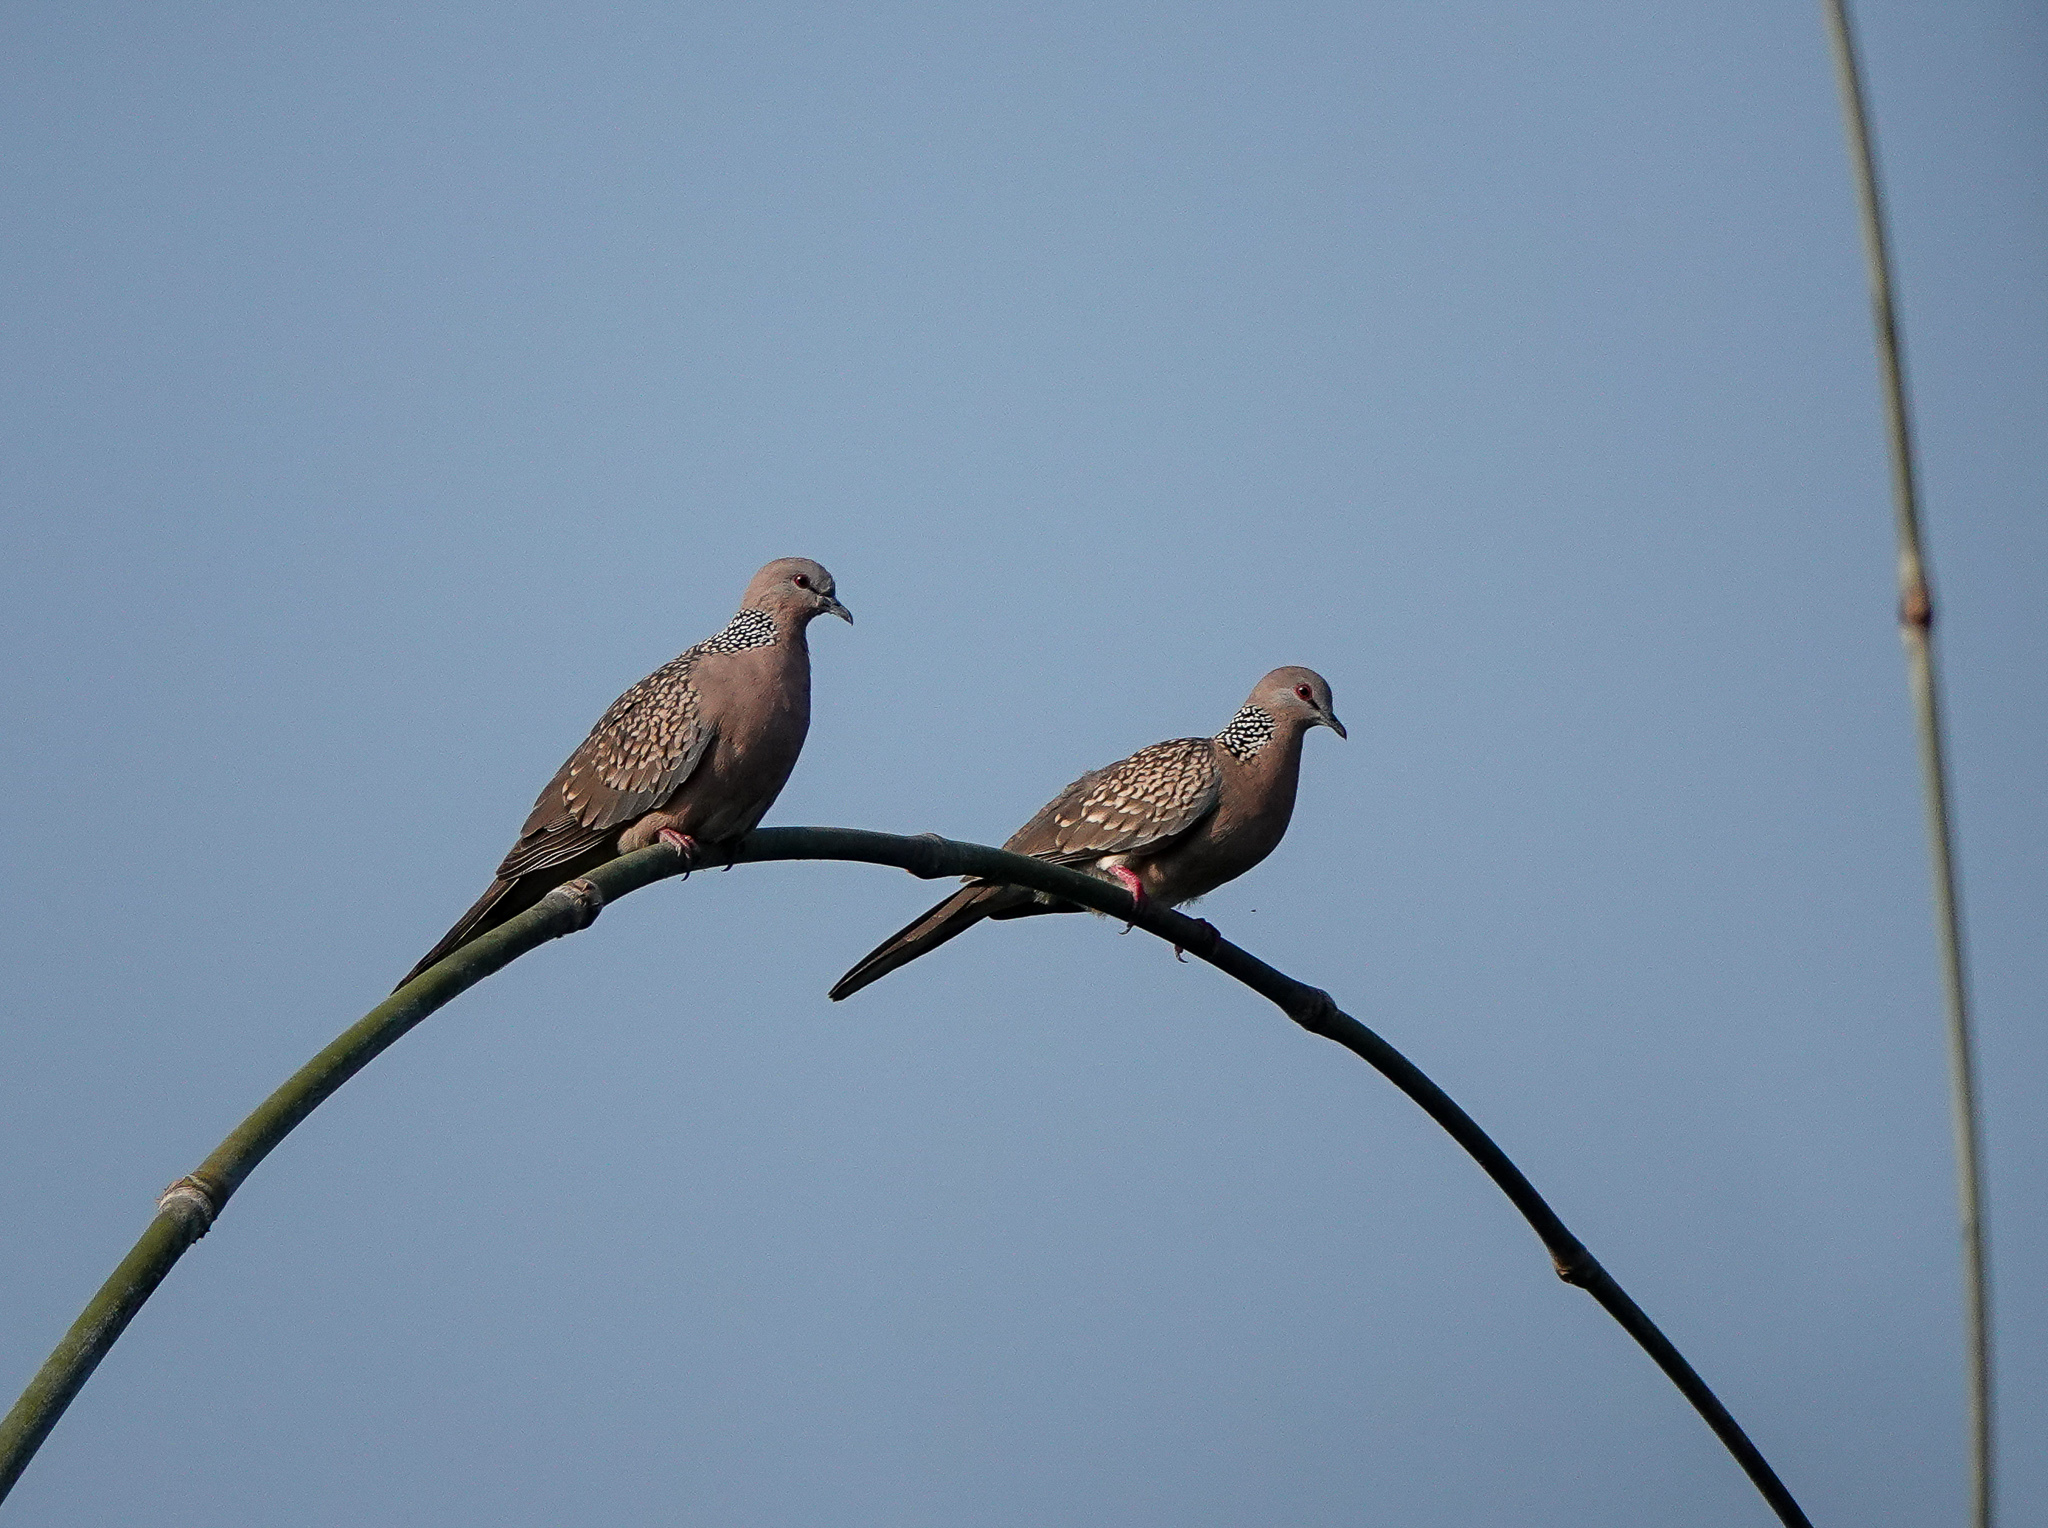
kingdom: Animalia
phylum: Chordata
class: Aves
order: Columbiformes
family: Columbidae
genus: Spilopelia
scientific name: Spilopelia chinensis
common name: Spotted dove
